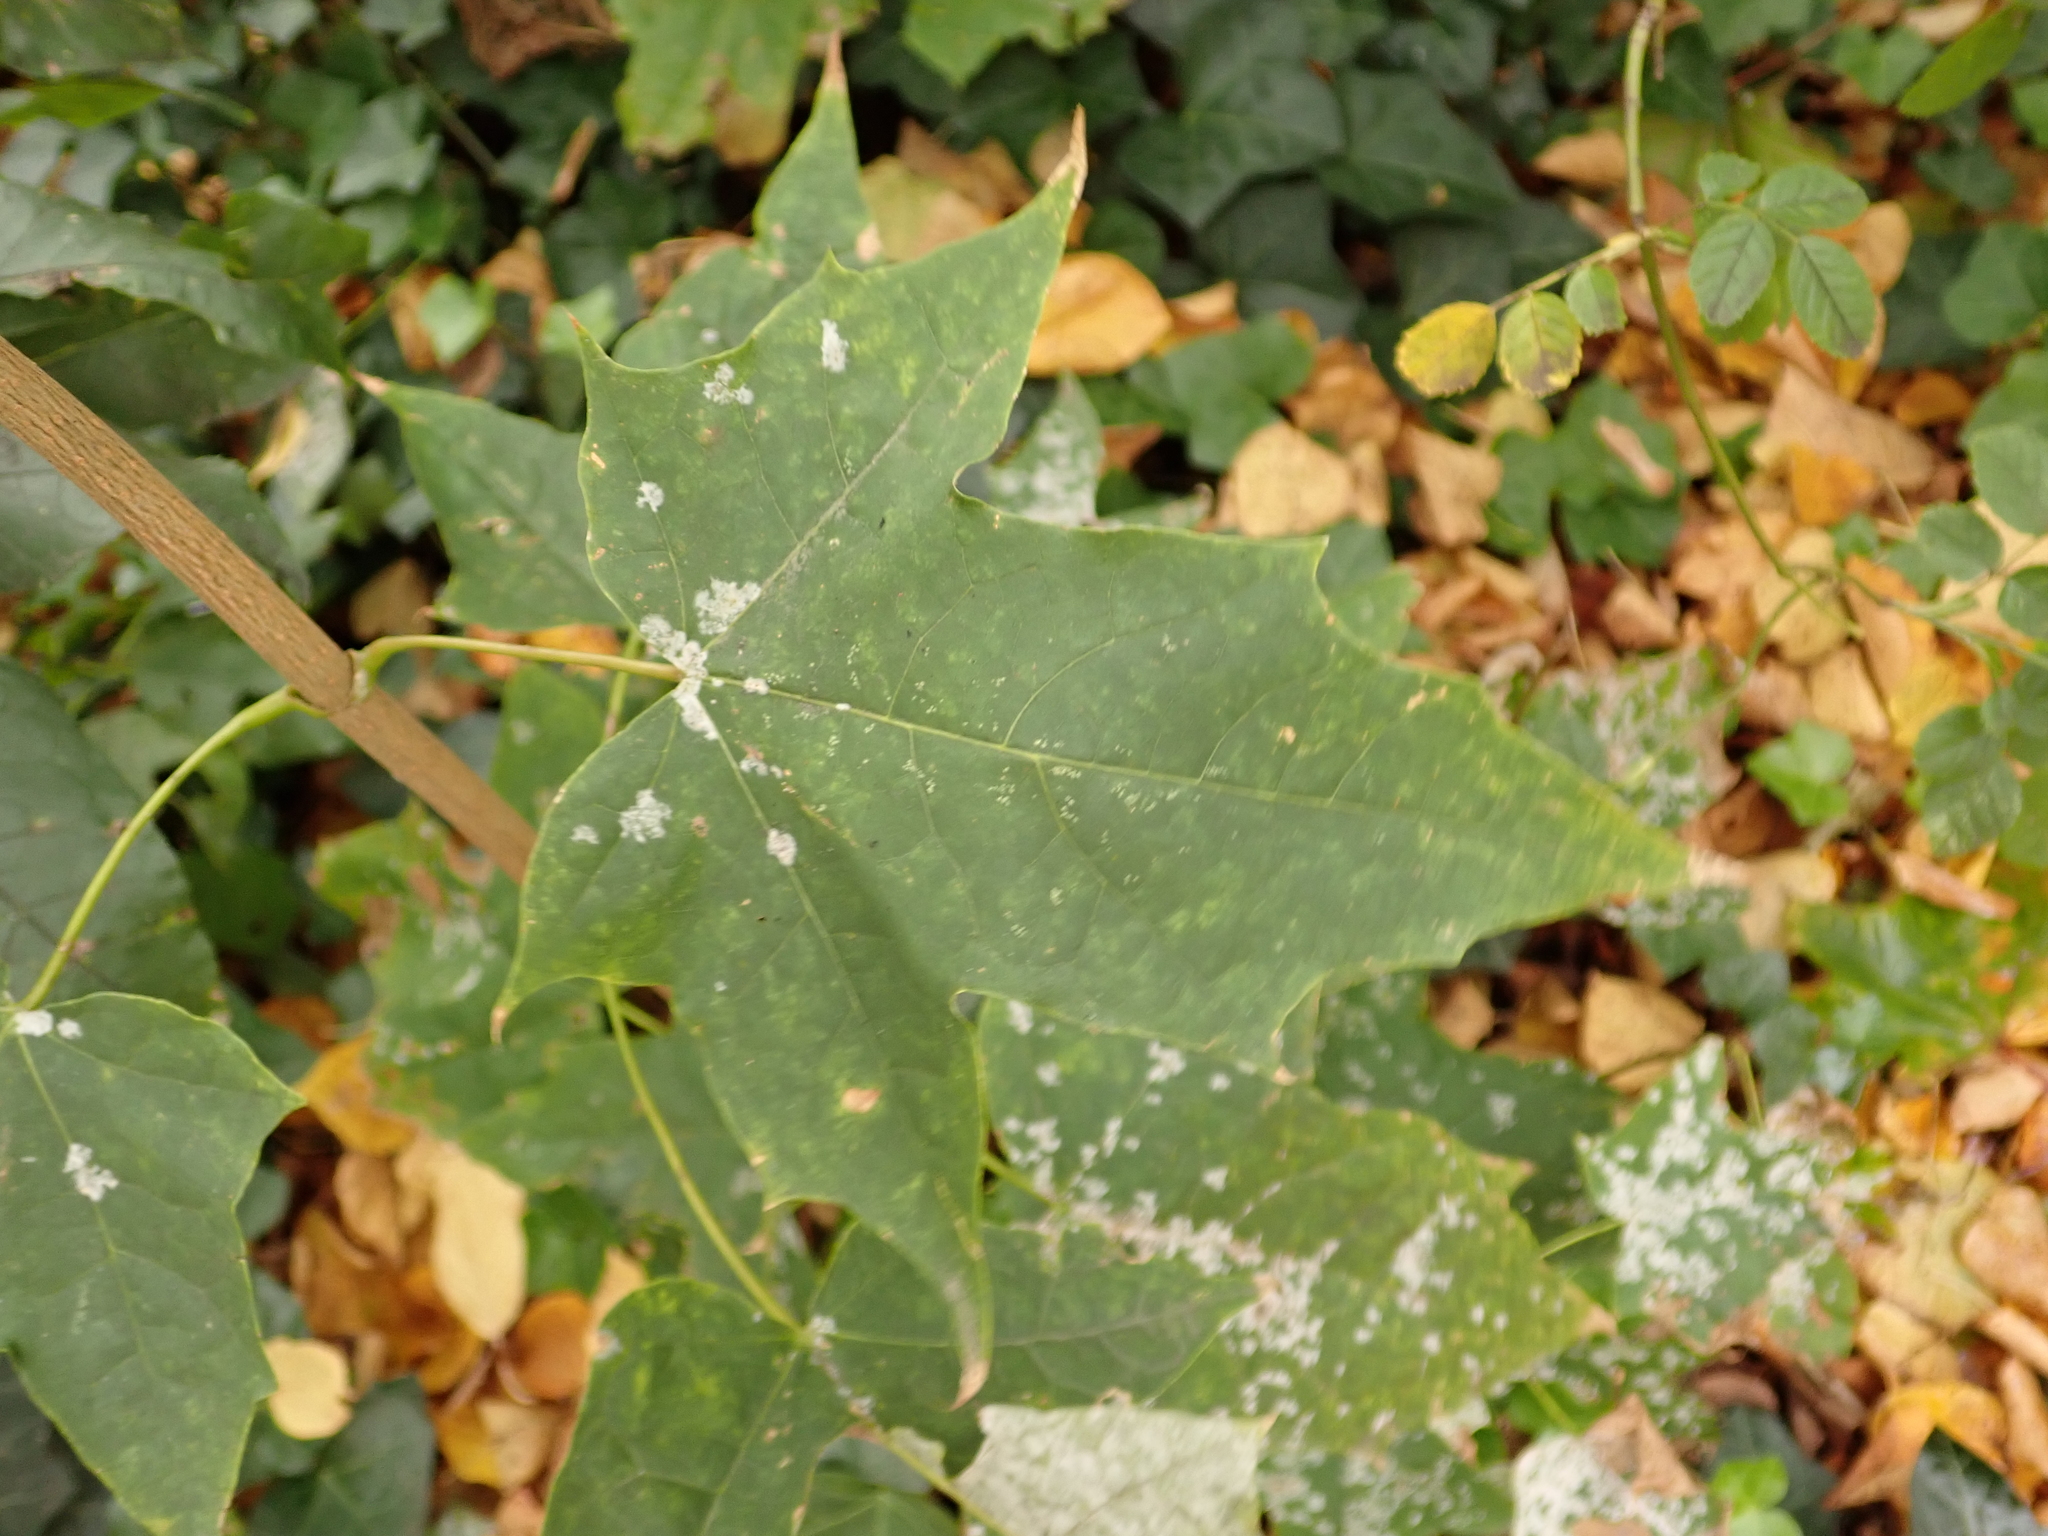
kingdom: Plantae
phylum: Tracheophyta
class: Magnoliopsida
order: Sapindales
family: Sapindaceae
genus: Acer
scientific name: Acer platanoides
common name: Norway maple
